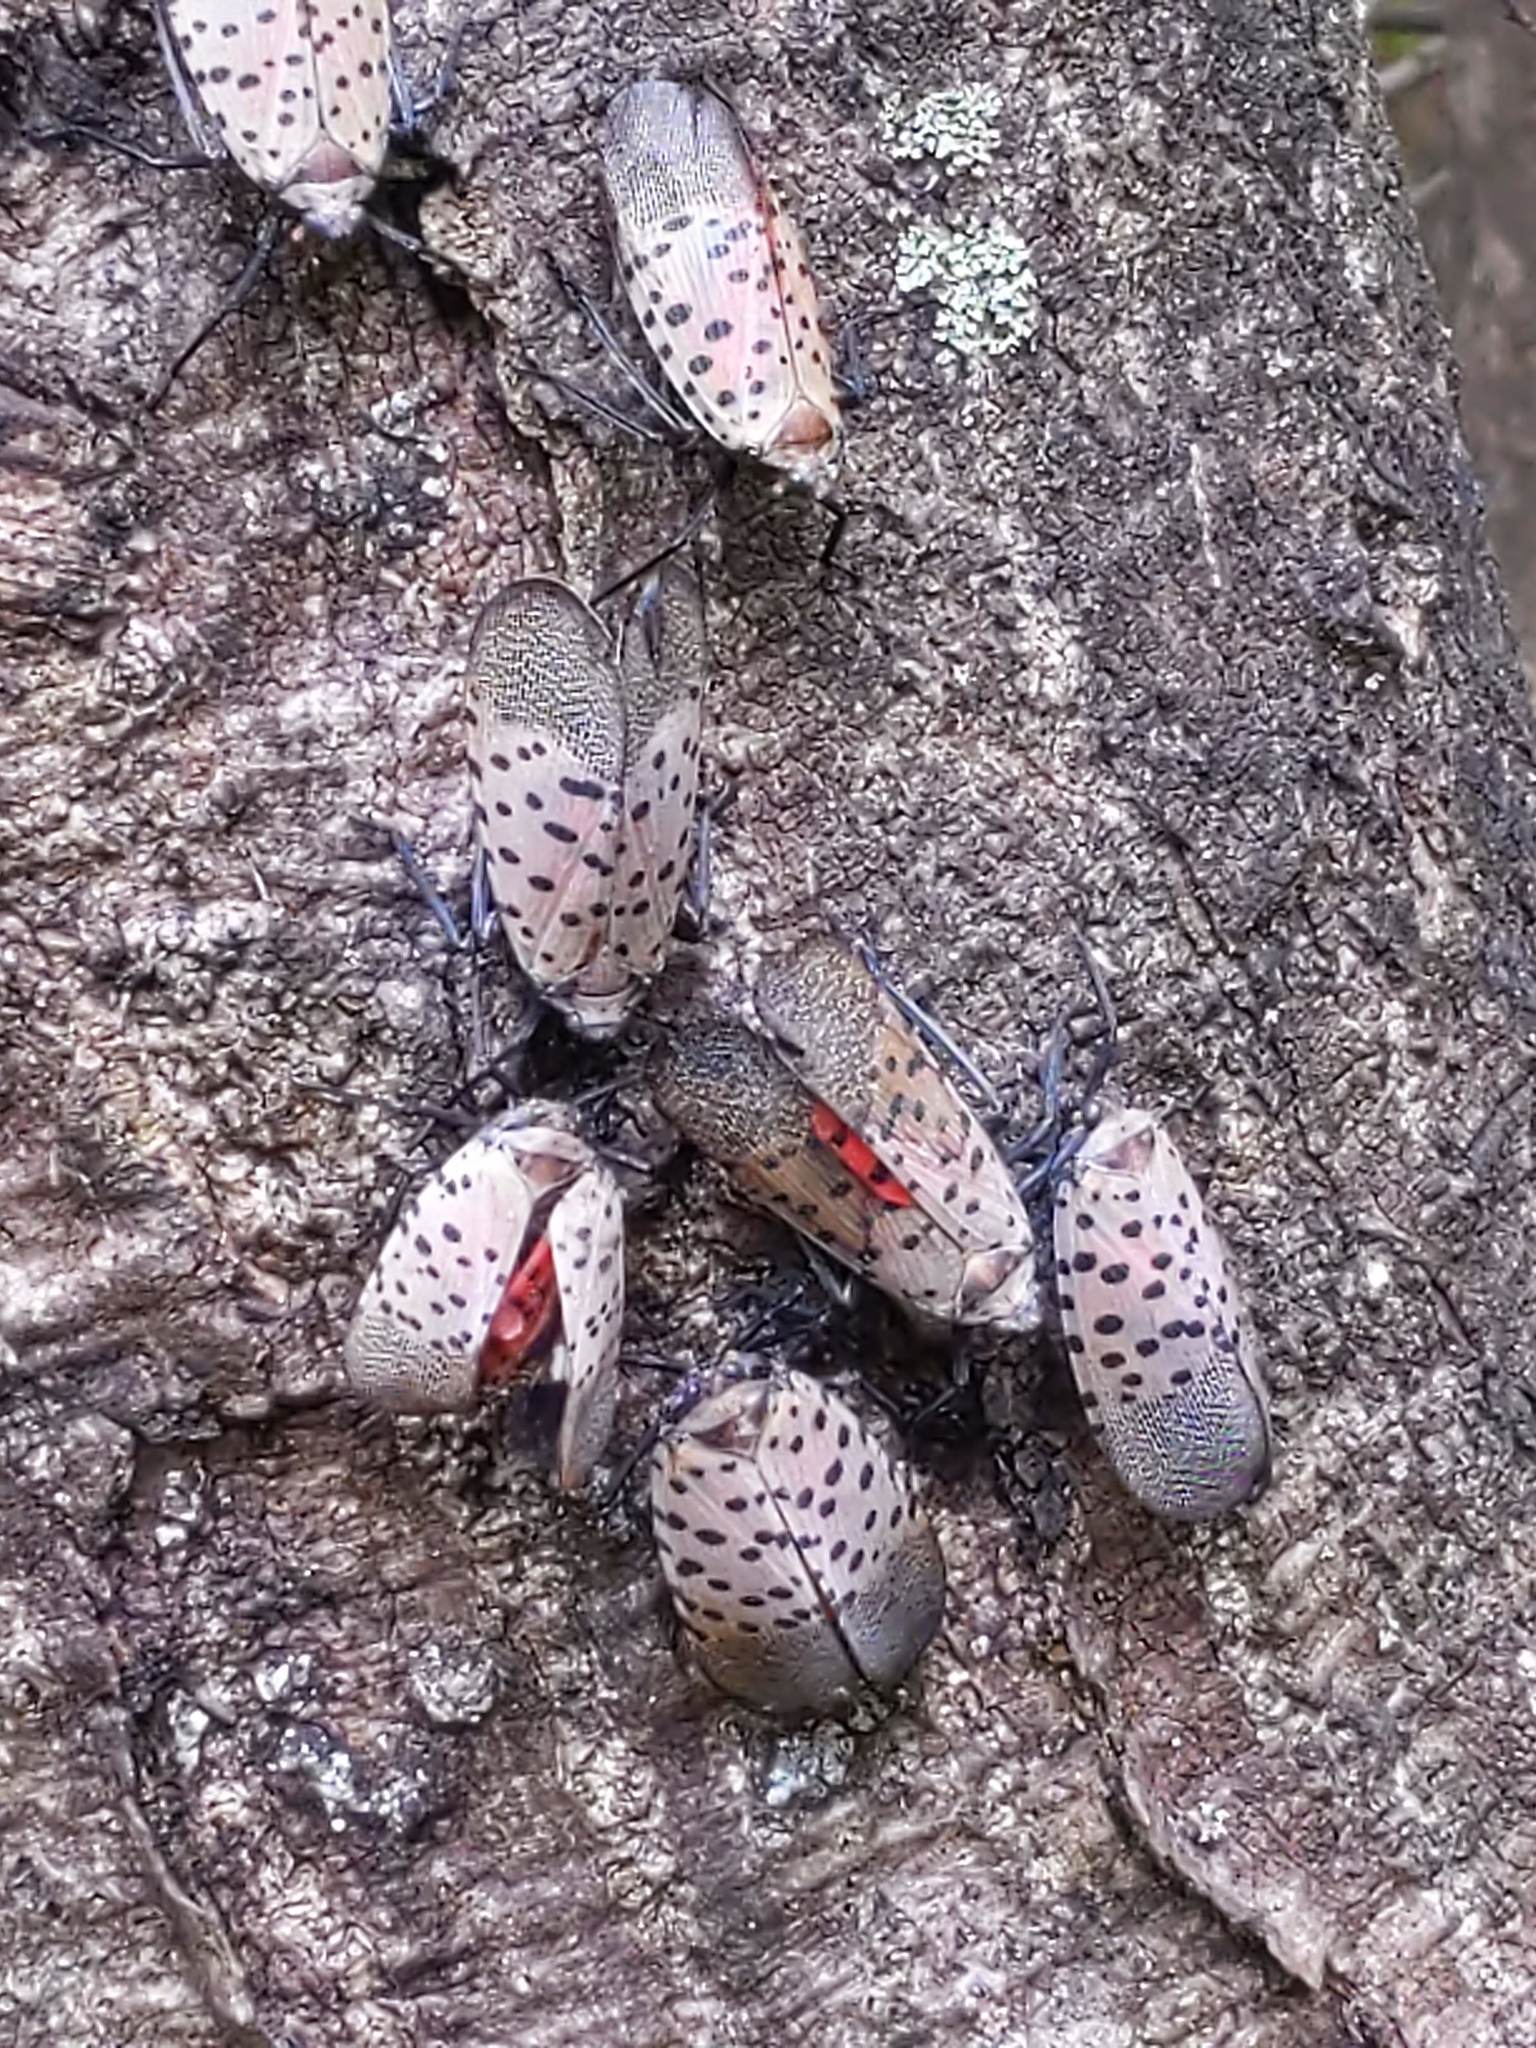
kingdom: Animalia
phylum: Arthropoda
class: Insecta
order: Hemiptera
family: Fulgoridae
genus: Lycorma
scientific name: Lycorma delicatula
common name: Spotted lanternfly
